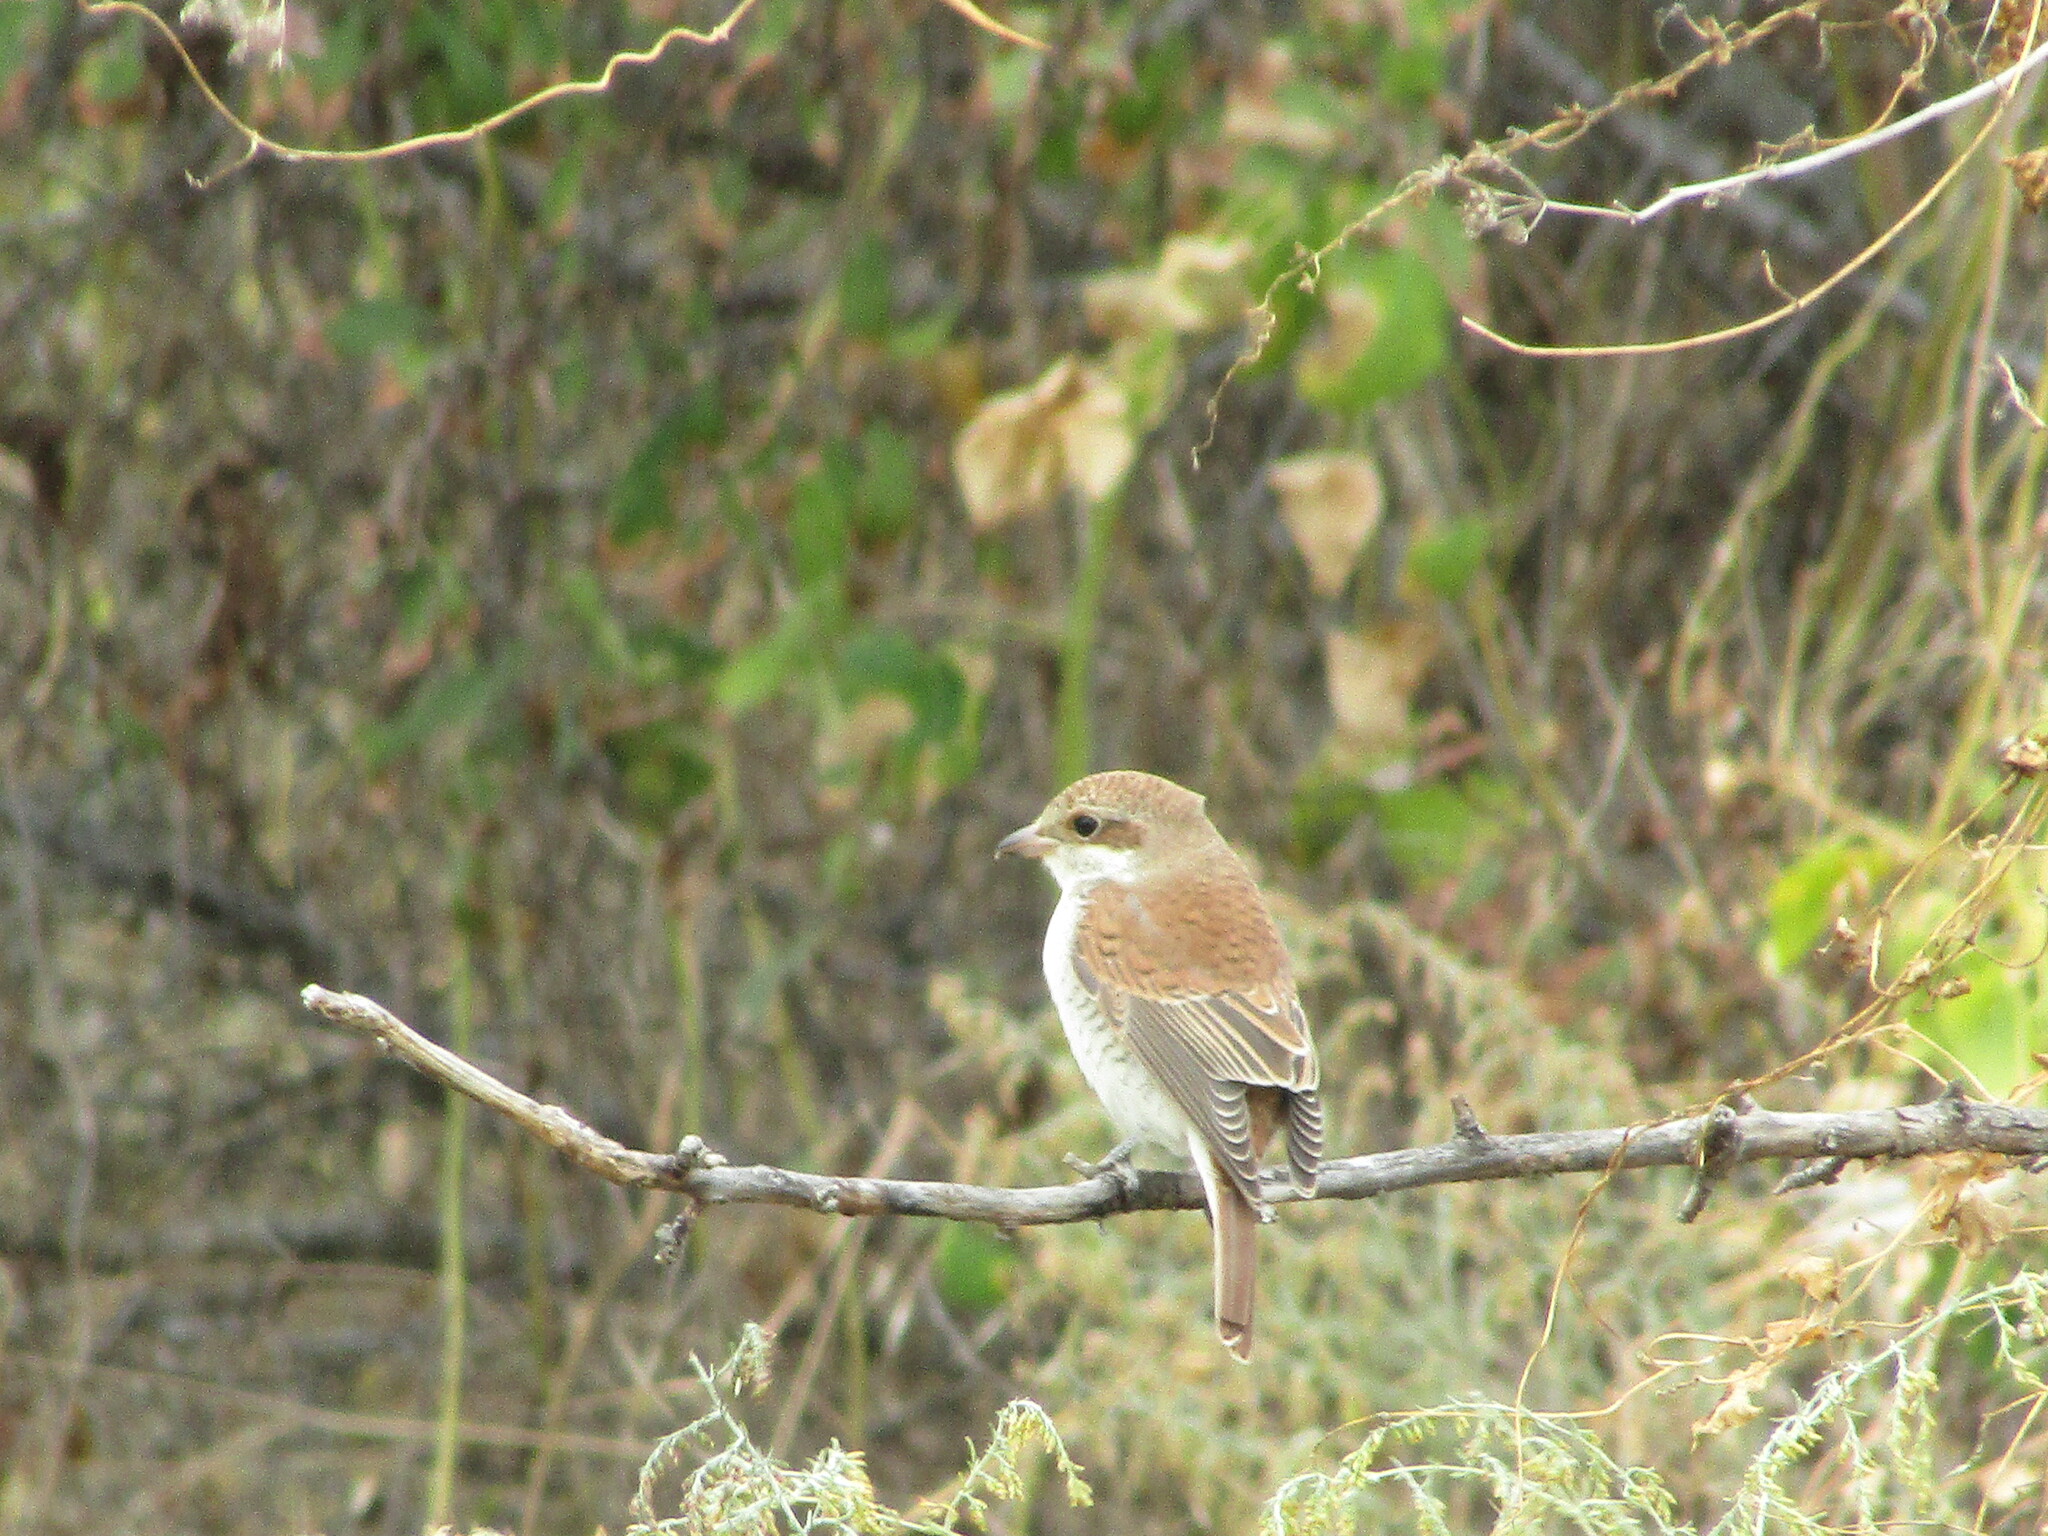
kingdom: Animalia
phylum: Chordata
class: Aves
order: Passeriformes
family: Laniidae
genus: Lanius
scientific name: Lanius collurio
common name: Red-backed shrike
